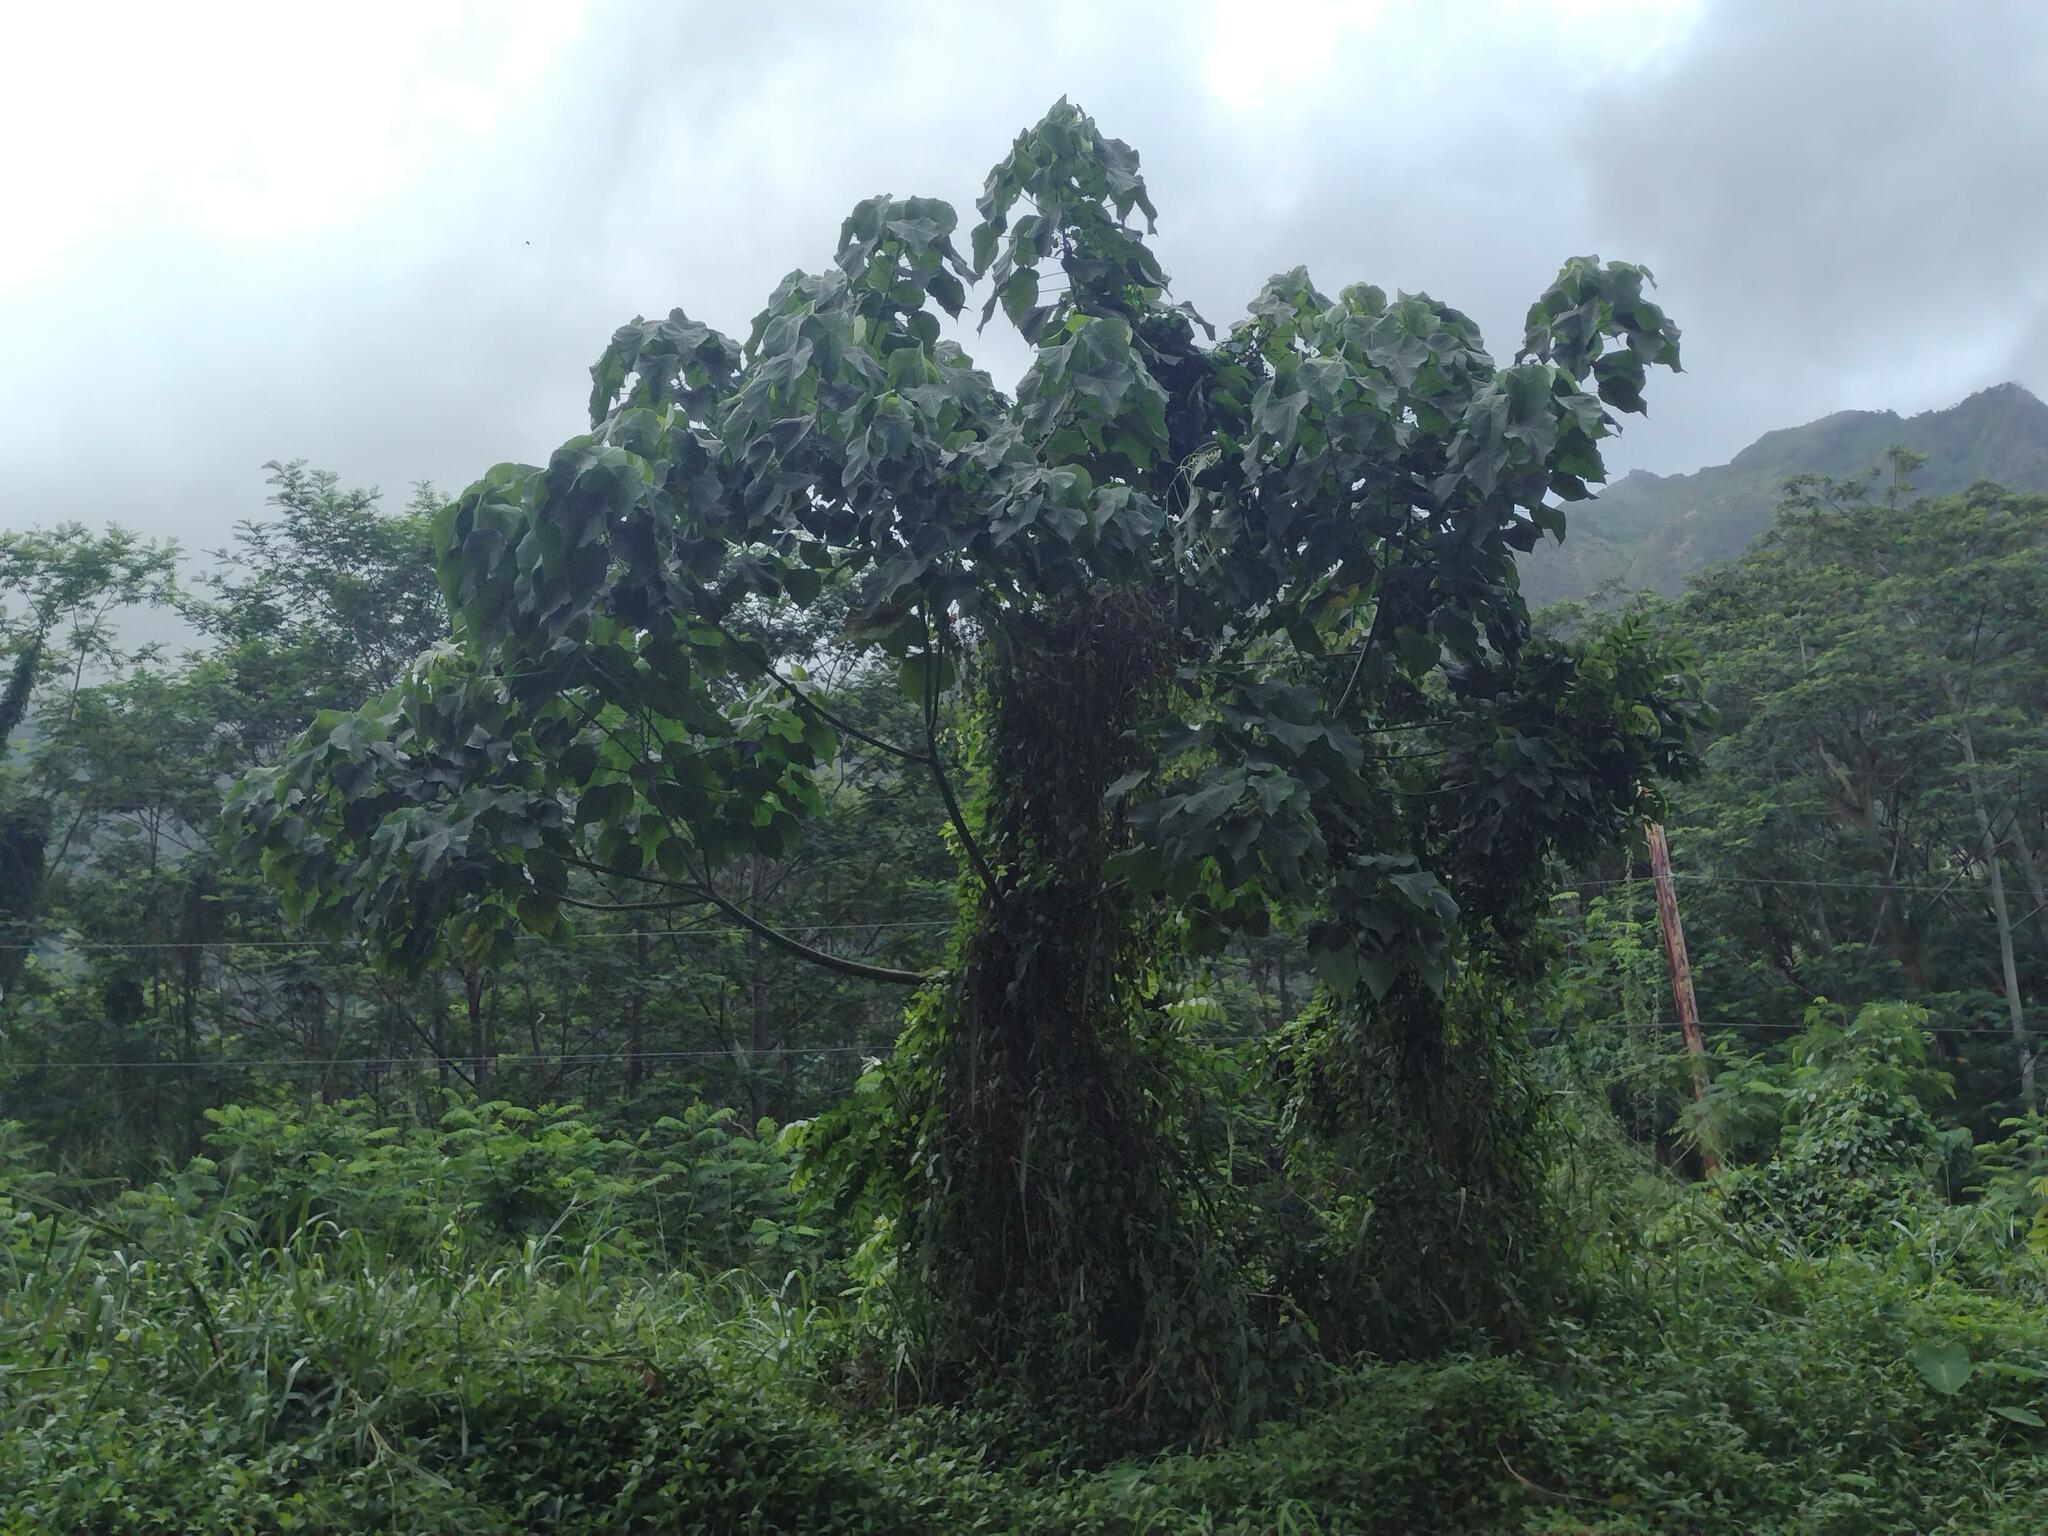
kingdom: Plantae
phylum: Tracheophyta
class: Magnoliopsida
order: Malpighiales
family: Euphorbiaceae
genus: Macaranga
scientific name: Macaranga tanarius
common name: Parasol leaf tree
